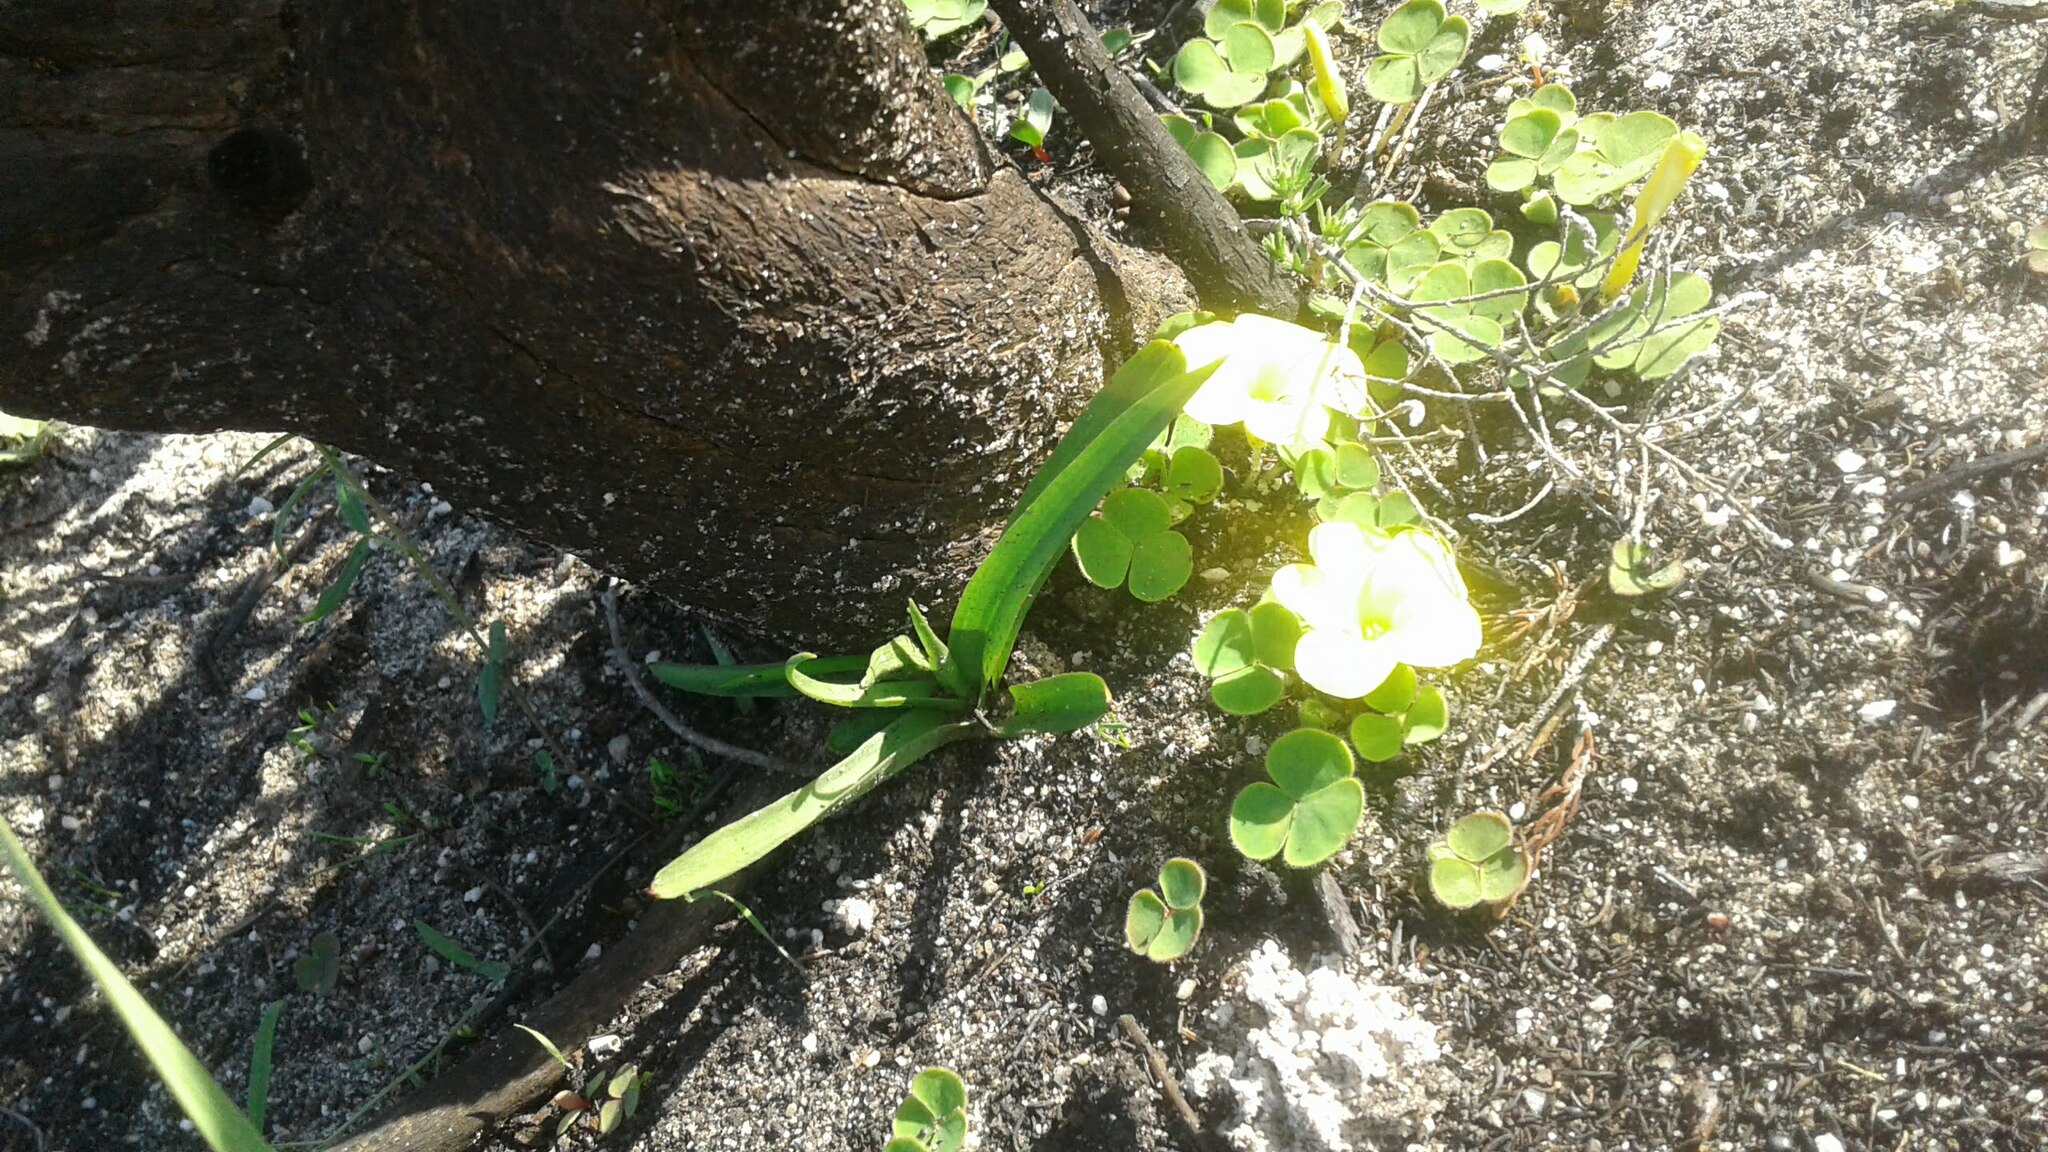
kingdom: Plantae
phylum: Tracheophyta
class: Liliopsida
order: Asparagales
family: Orchidaceae
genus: Disa
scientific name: Disa bracteata
